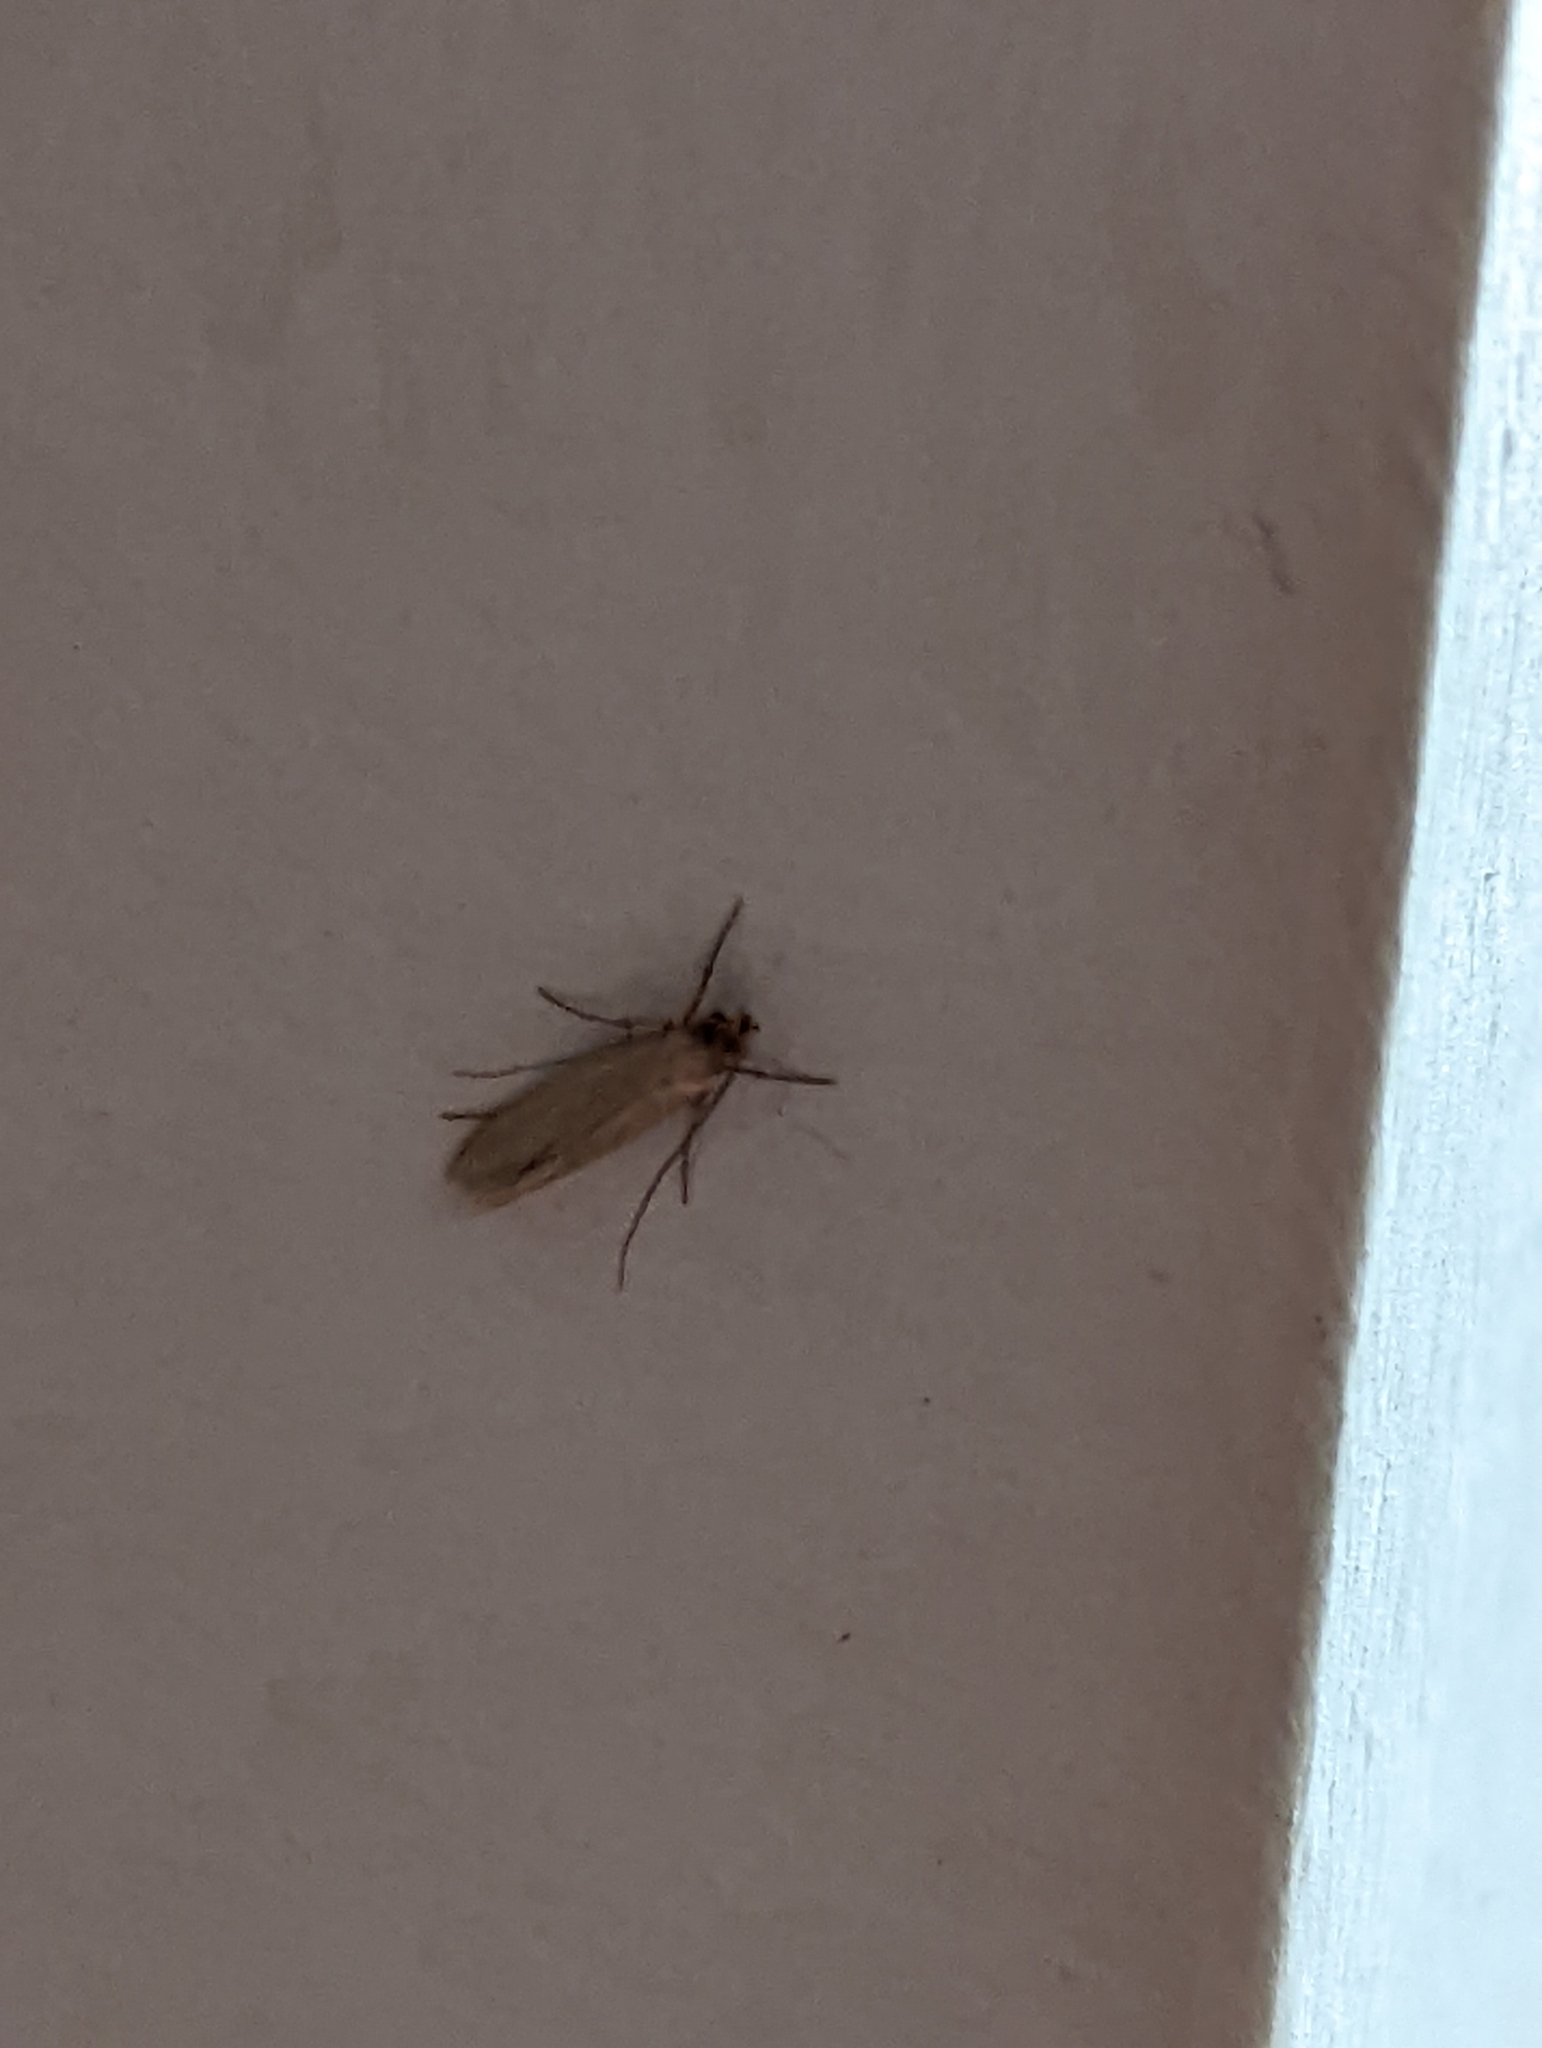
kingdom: Animalia
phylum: Arthropoda
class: Insecta
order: Lepidoptera
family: Tineidae
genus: Tineola
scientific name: Tineola bisselliella
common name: Webbing clothes moth
